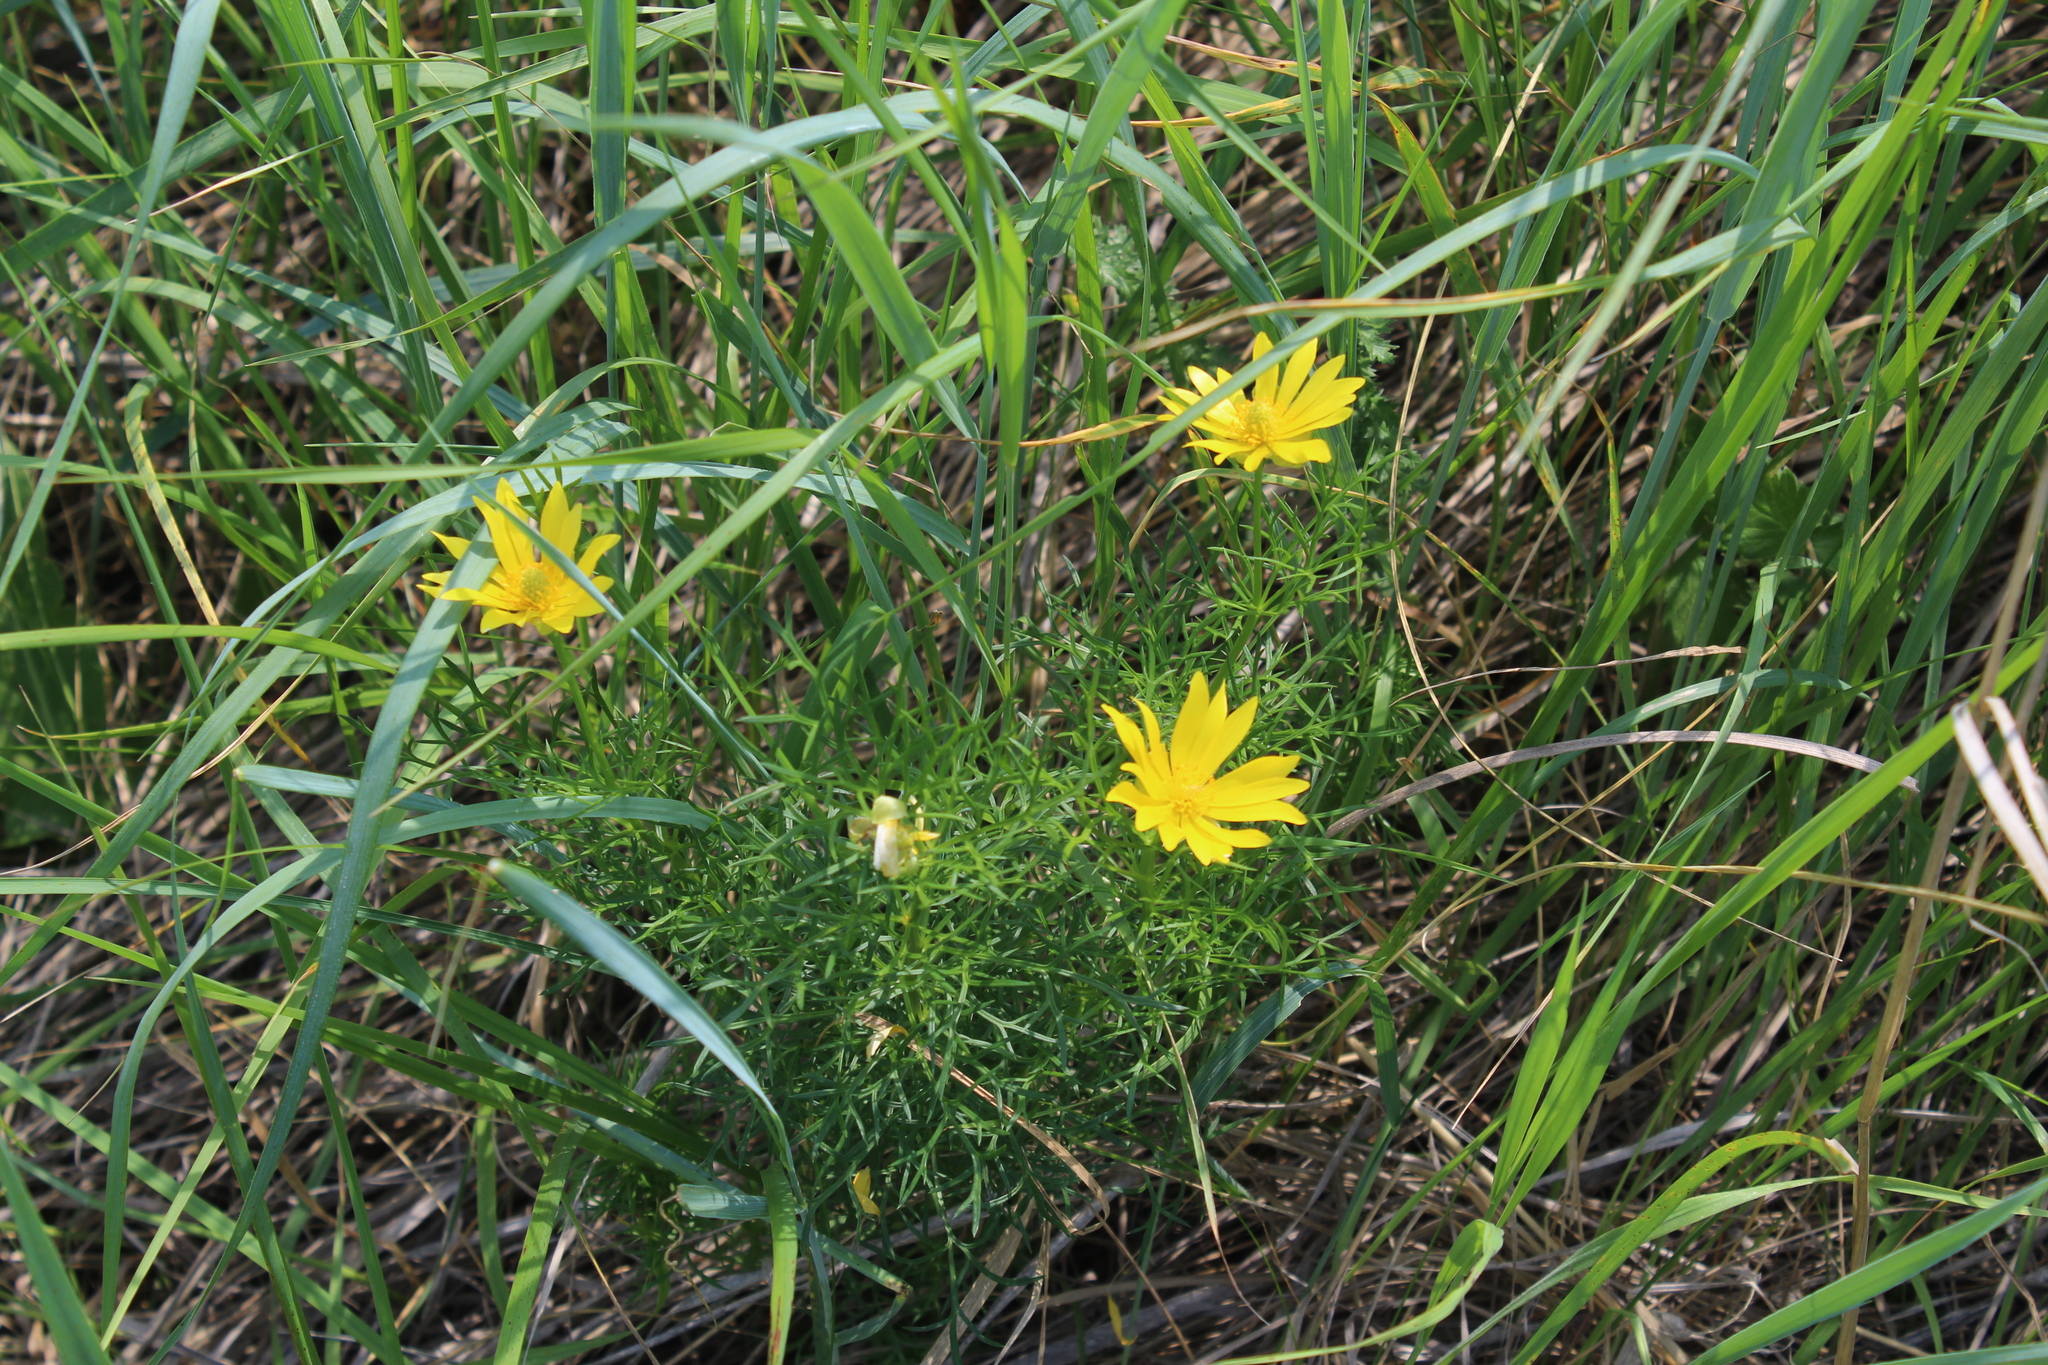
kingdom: Plantae
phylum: Tracheophyta
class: Magnoliopsida
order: Ranunculales
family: Ranunculaceae
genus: Adonis
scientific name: Adonis vernalis
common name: Yellow pheasants-eye
